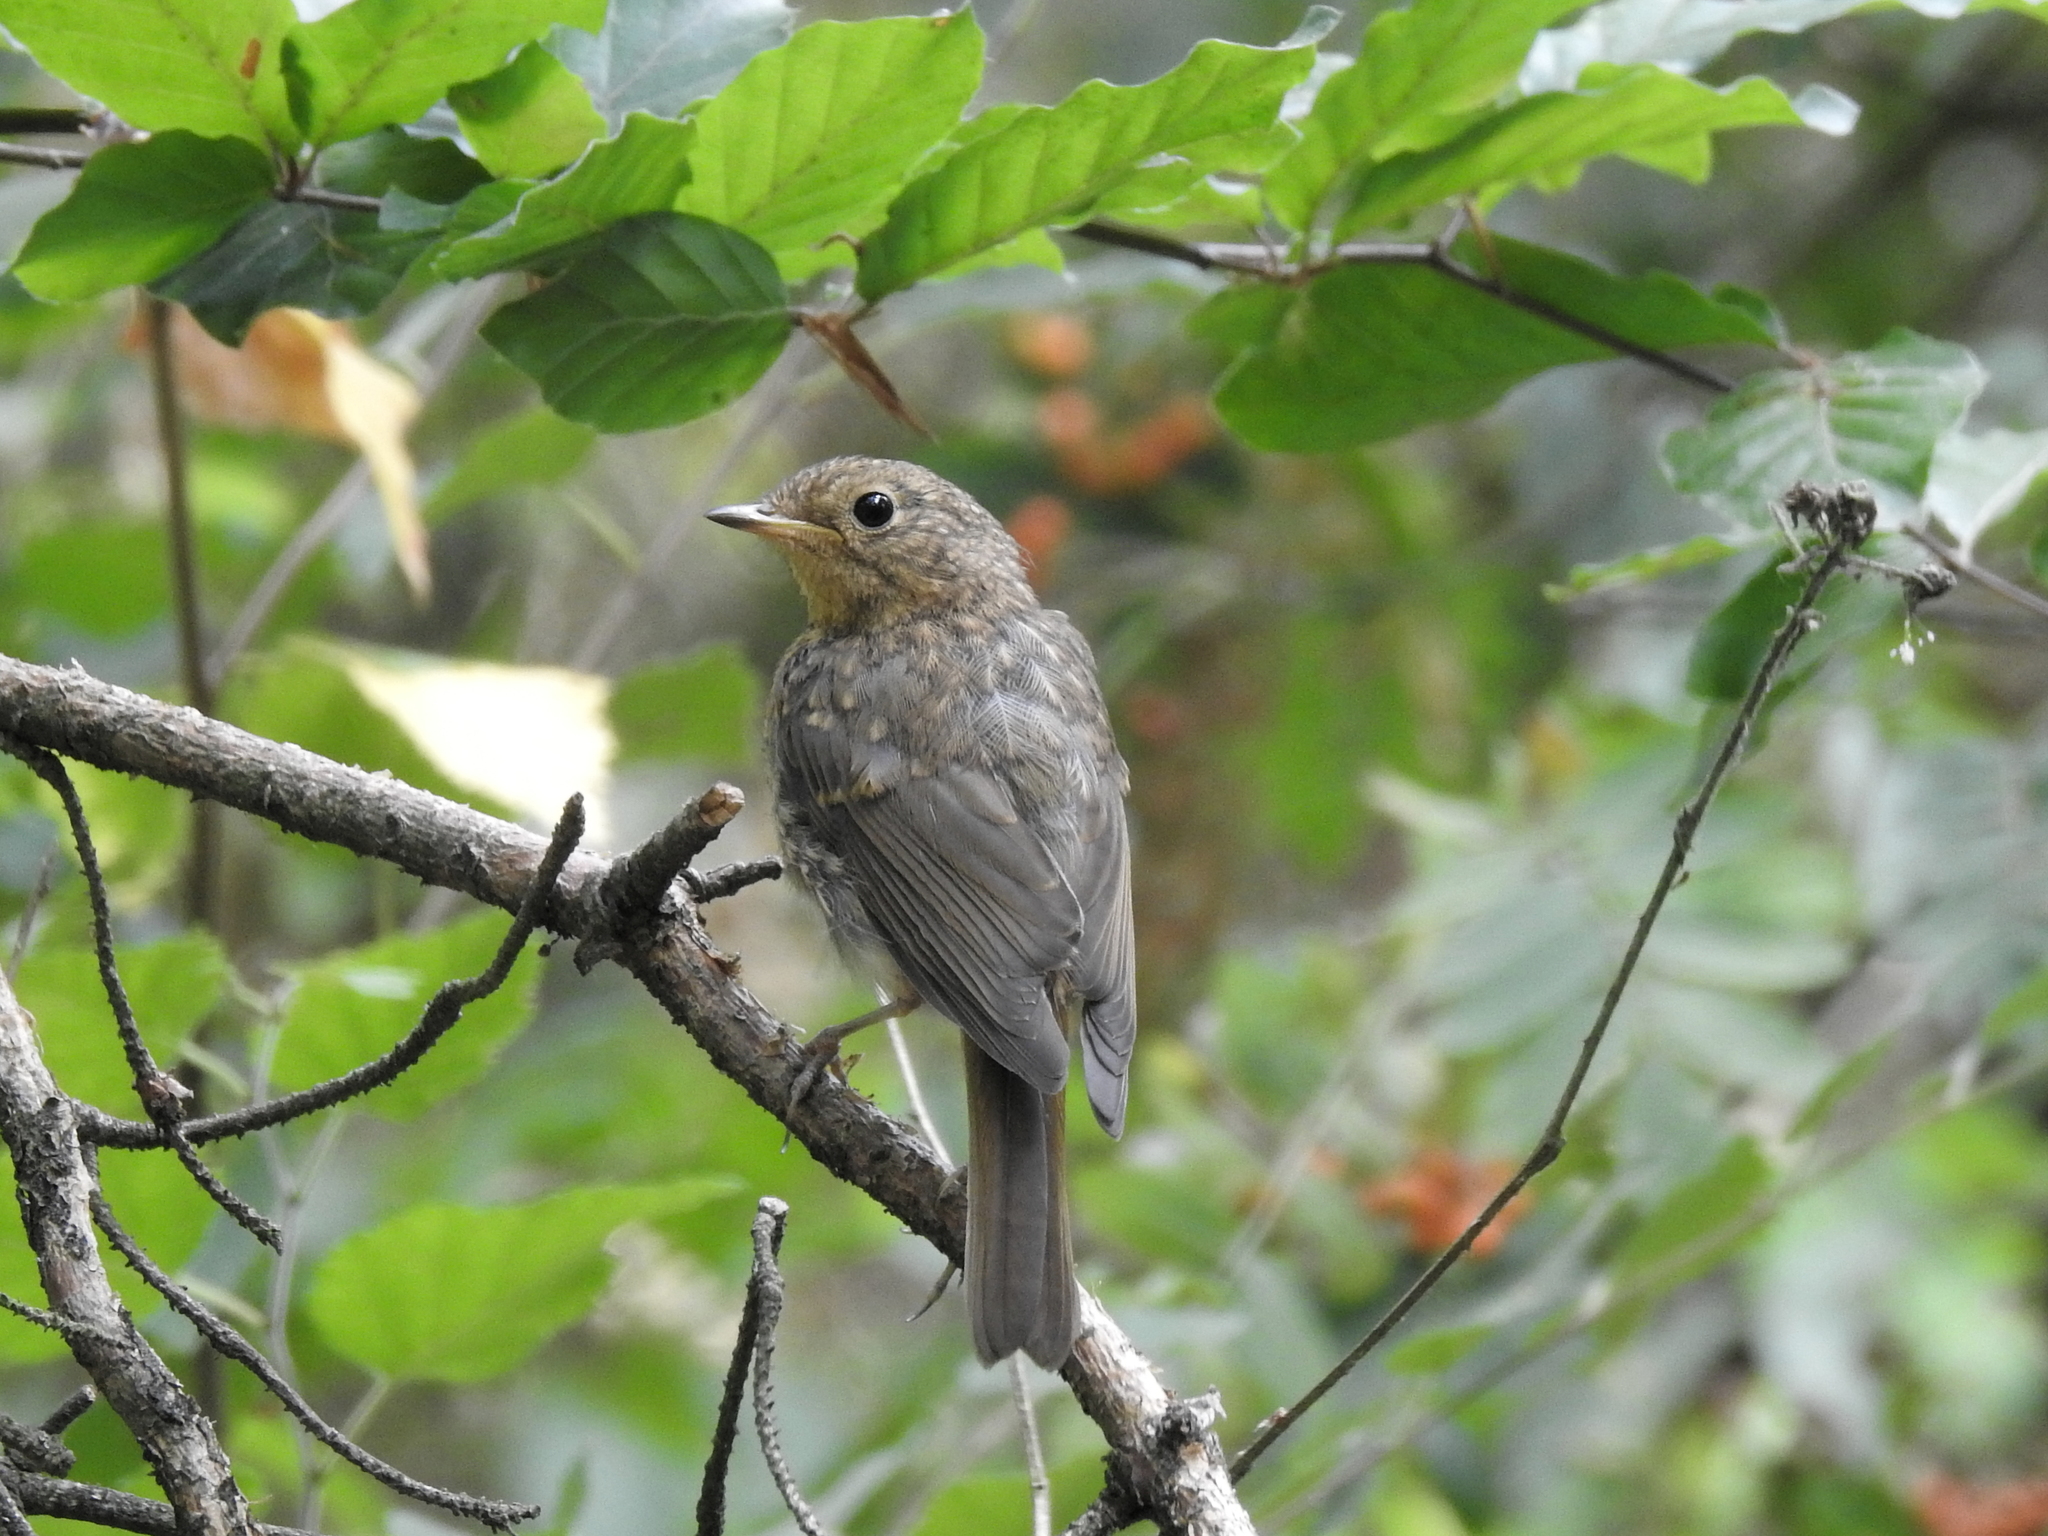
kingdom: Animalia
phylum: Chordata
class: Aves
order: Passeriformes
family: Muscicapidae
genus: Erithacus
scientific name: Erithacus rubecula
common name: European robin
